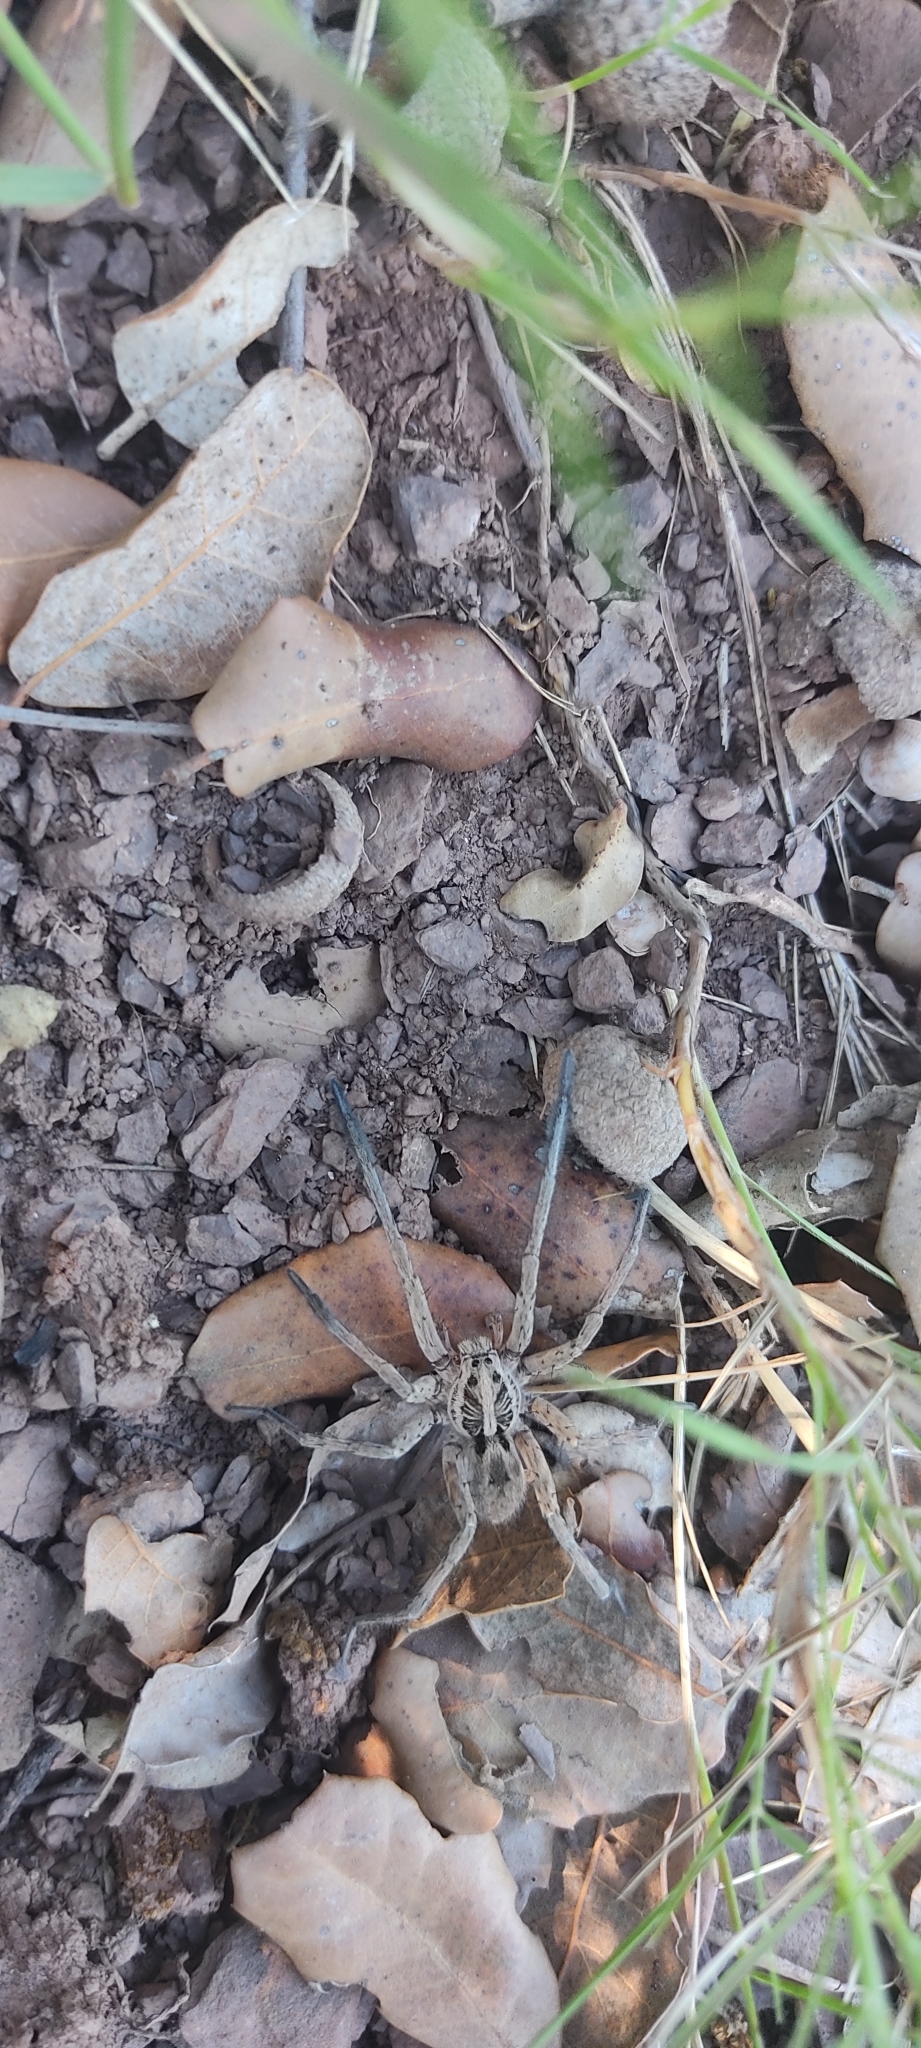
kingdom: Animalia
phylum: Arthropoda
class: Arachnida
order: Araneae
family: Lycosidae
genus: Hogna
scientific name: Hogna radiata
